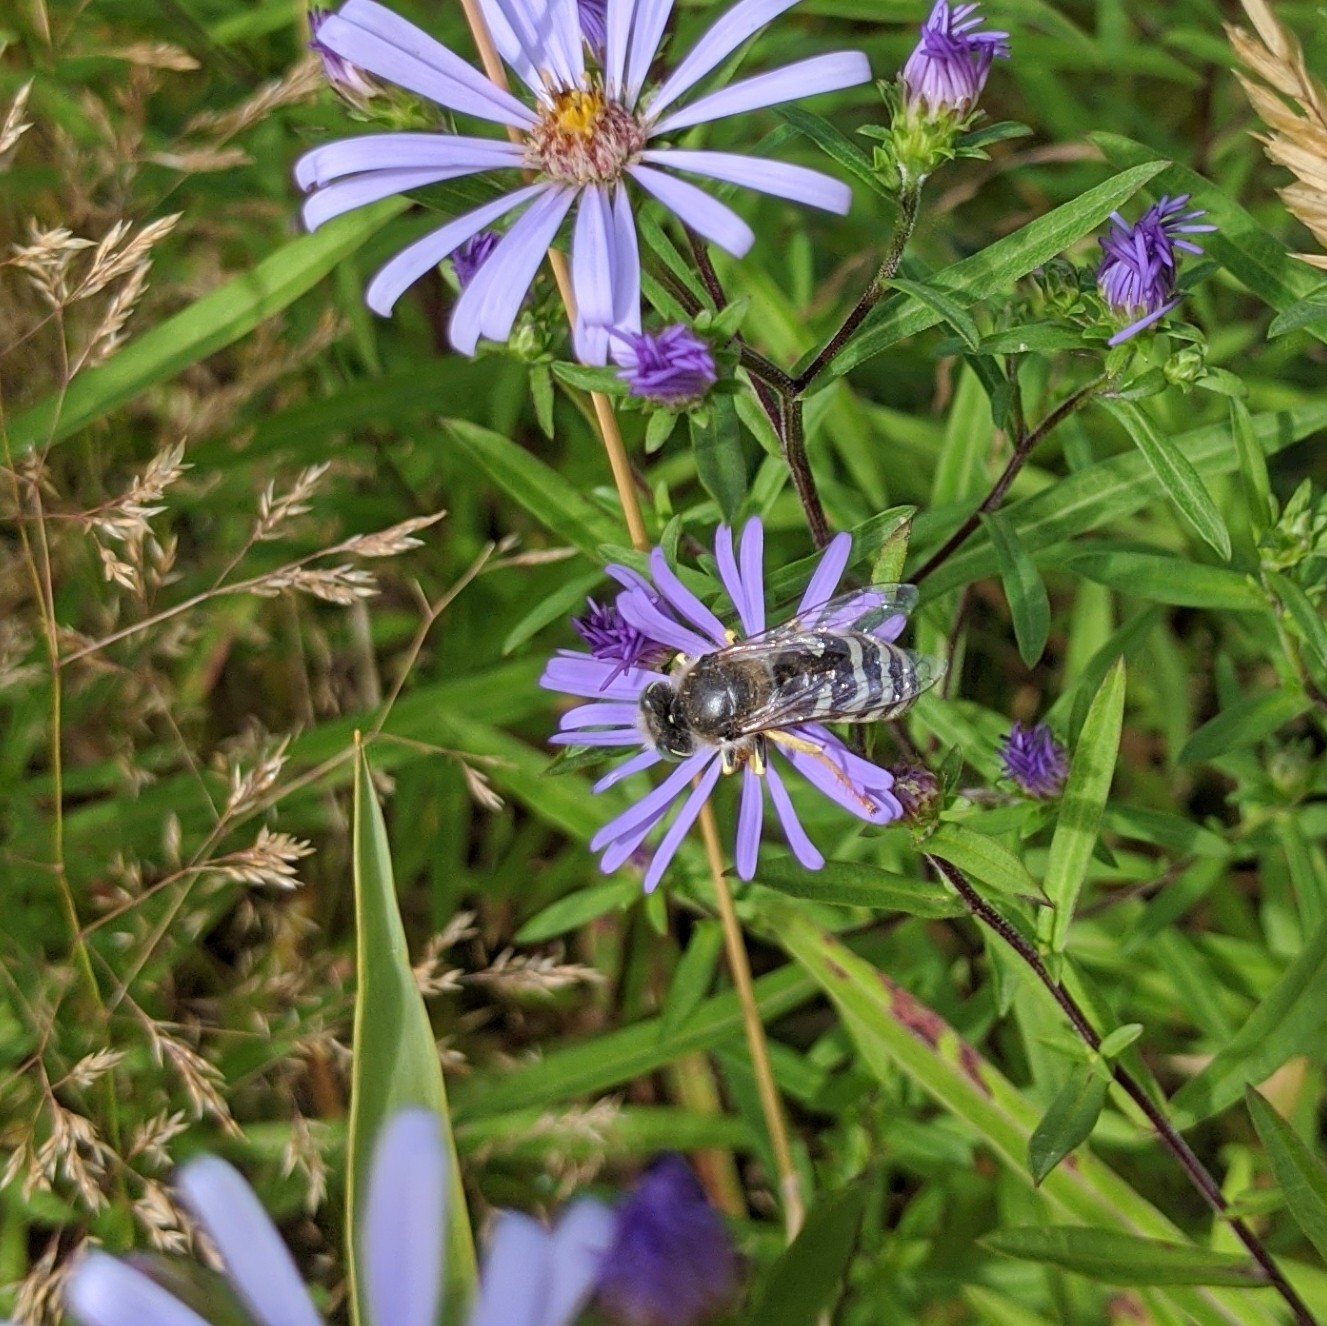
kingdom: Animalia
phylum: Arthropoda
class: Insecta
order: Hymenoptera
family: Crabronidae
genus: Bembix
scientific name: Bembix americana
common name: American sand wasp
